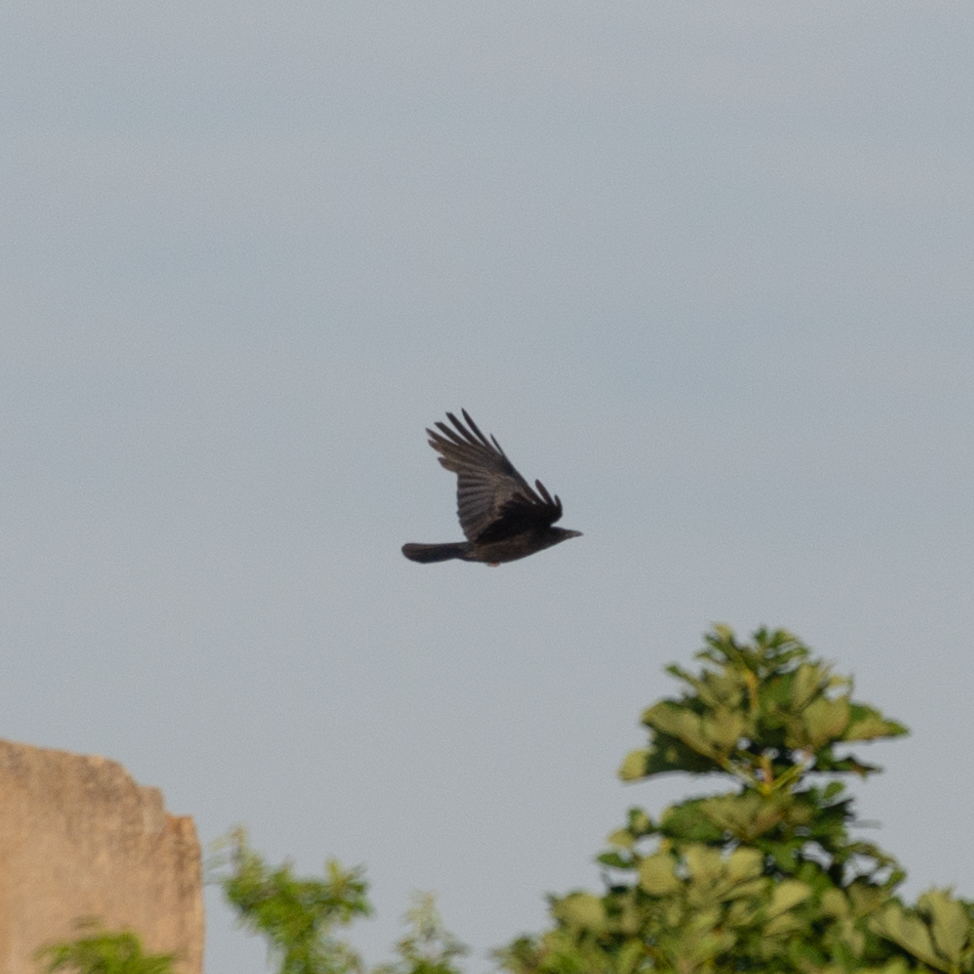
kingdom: Animalia
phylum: Chordata
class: Aves
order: Passeriformes
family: Corvidae
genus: Corvus
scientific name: Corvus corone
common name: Carrion crow
